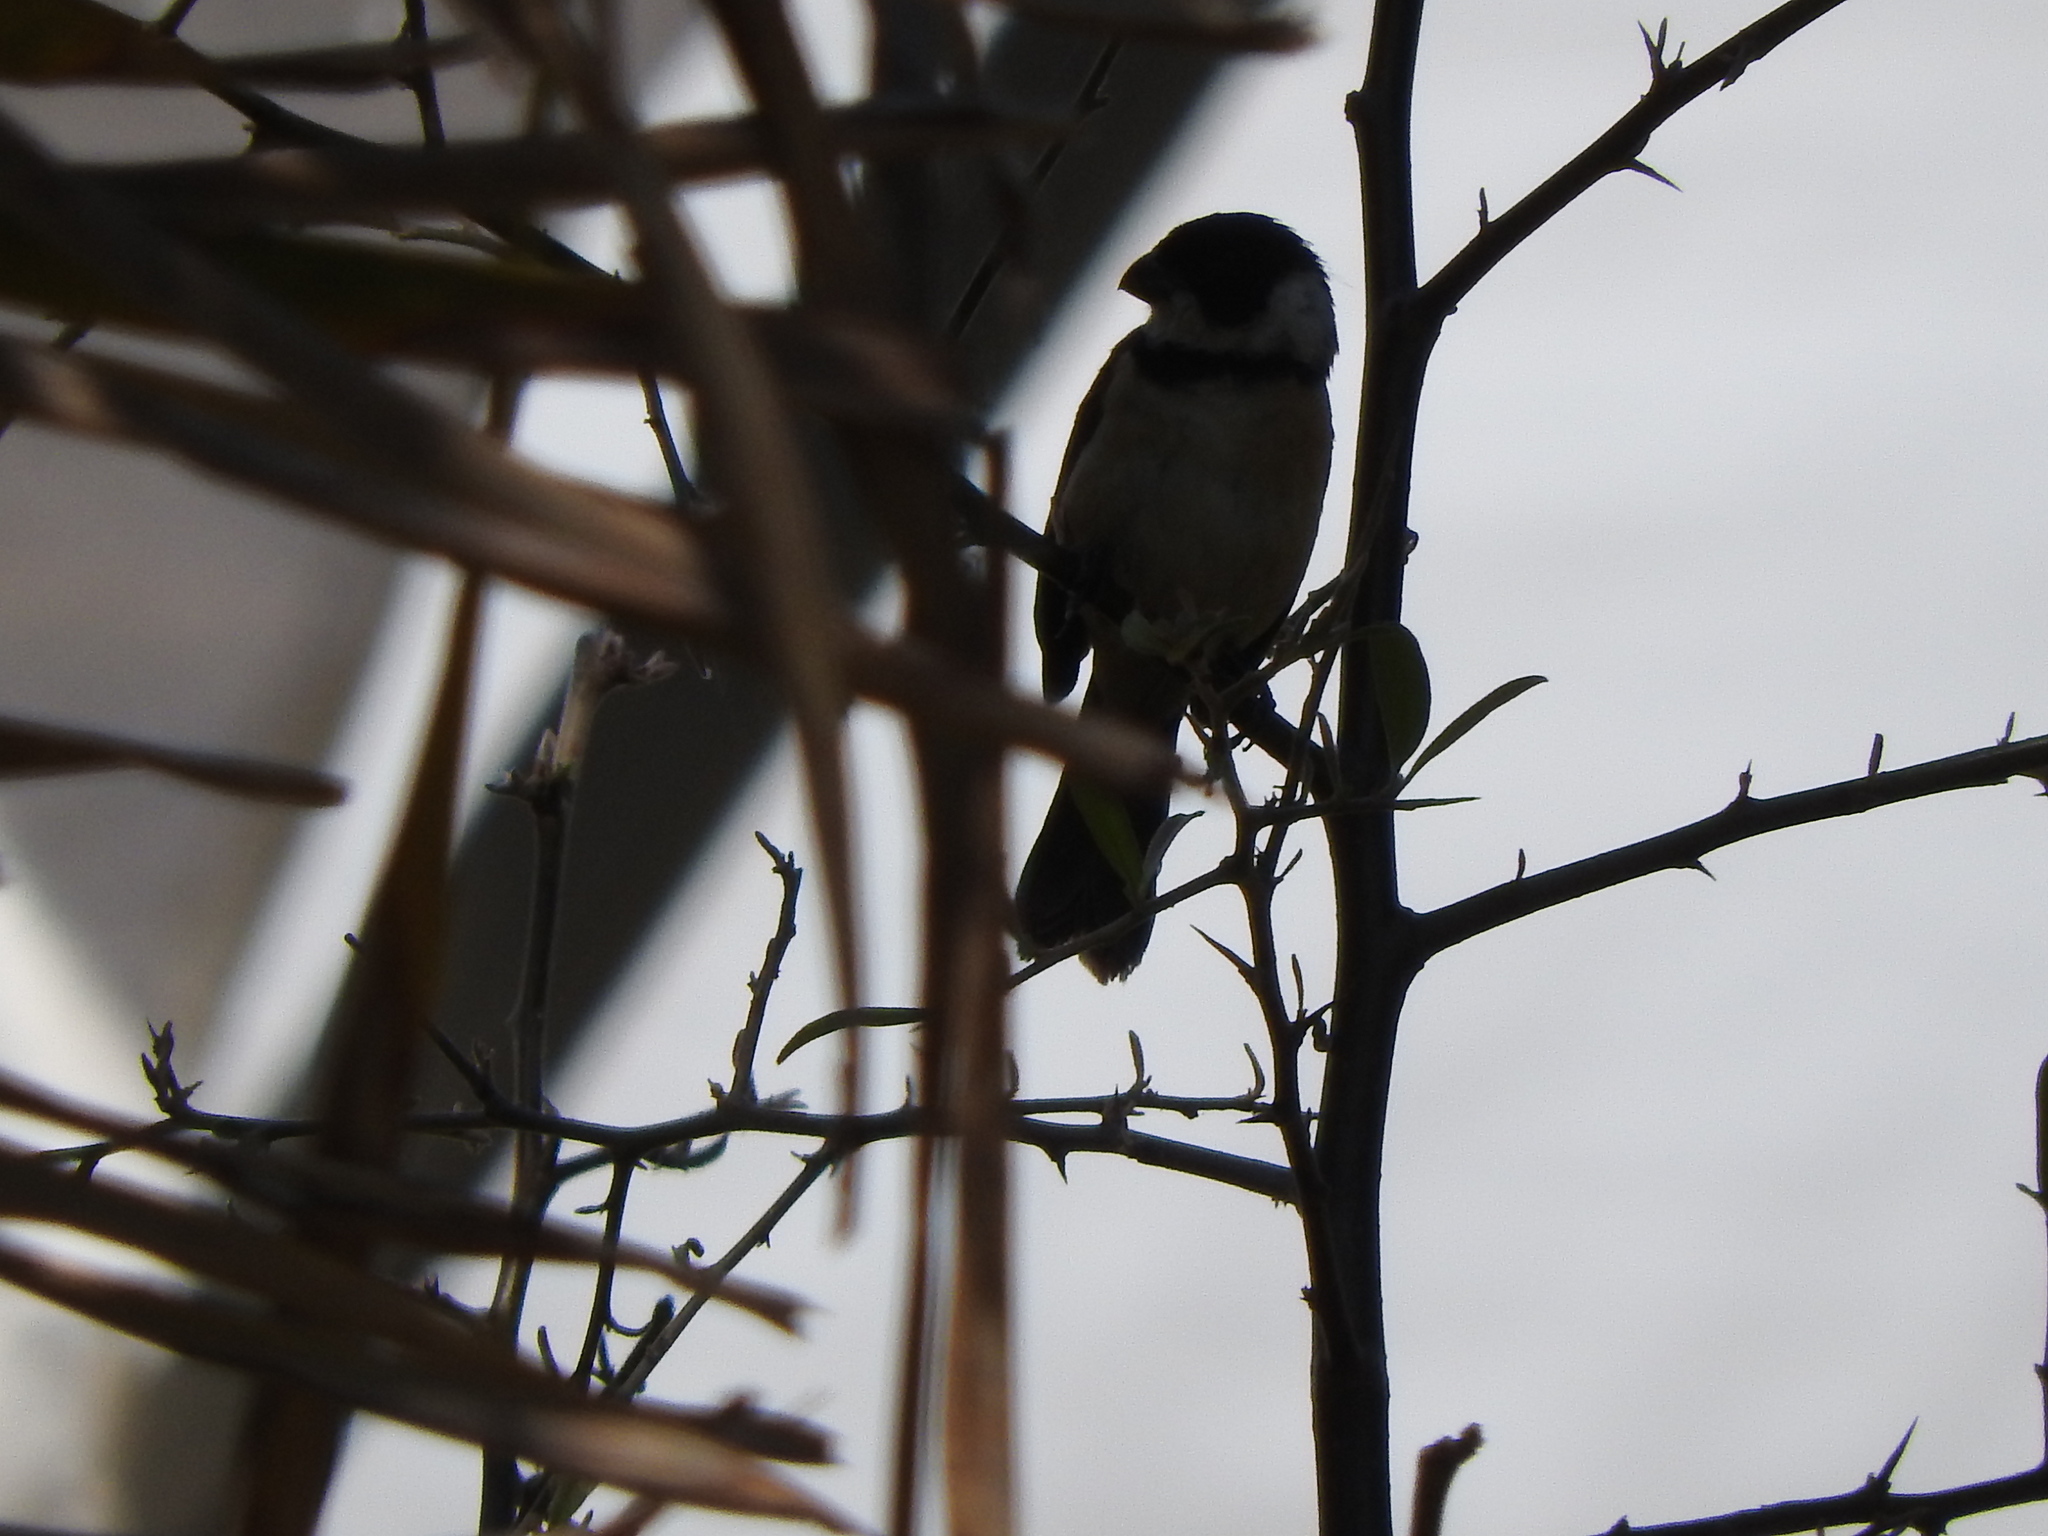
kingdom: Animalia
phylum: Chordata
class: Aves
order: Passeriformes
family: Thraupidae
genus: Sporophila
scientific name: Sporophila torqueola
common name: White-collared seedeater
